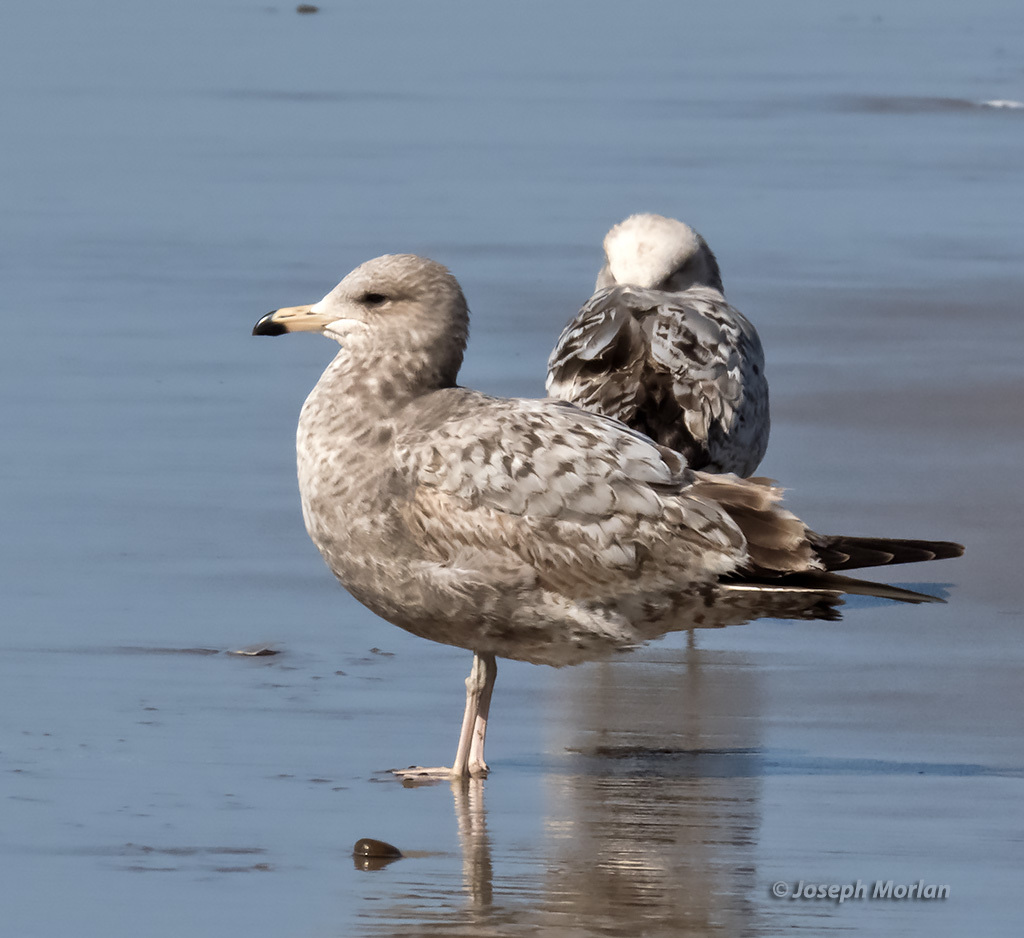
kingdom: Animalia
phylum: Chordata
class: Aves
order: Charadriiformes
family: Laridae
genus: Larus
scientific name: Larus californicus
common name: California gull
